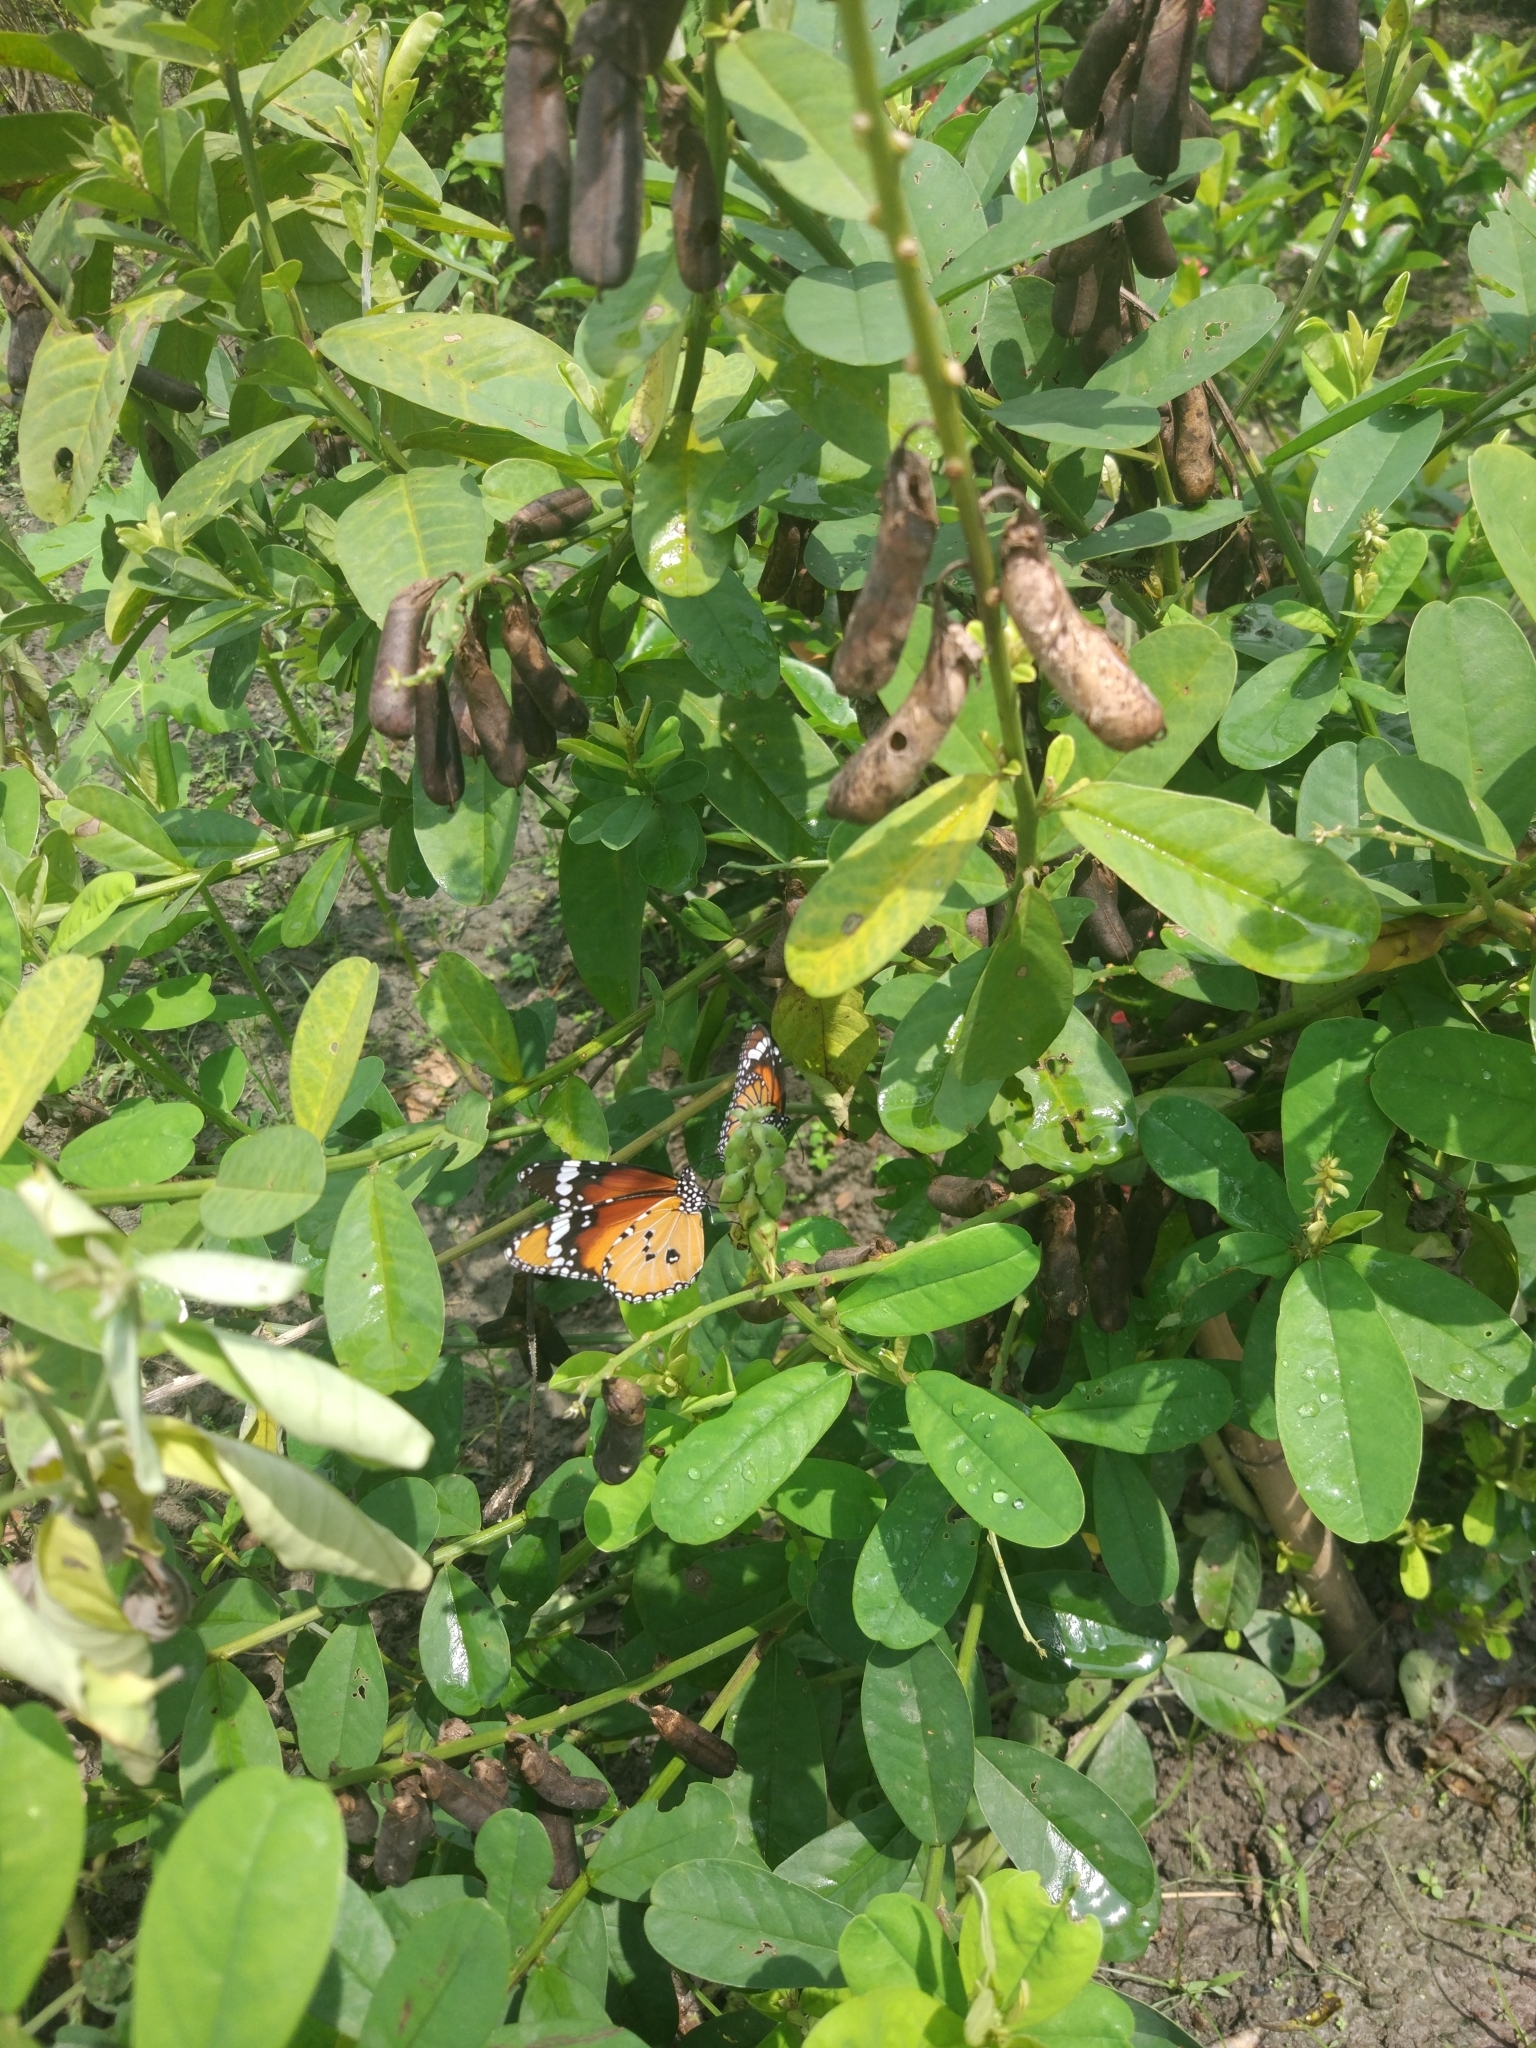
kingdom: Animalia
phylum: Arthropoda
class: Insecta
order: Lepidoptera
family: Nymphalidae
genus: Danaus
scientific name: Danaus chrysippus
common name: Plain tiger
